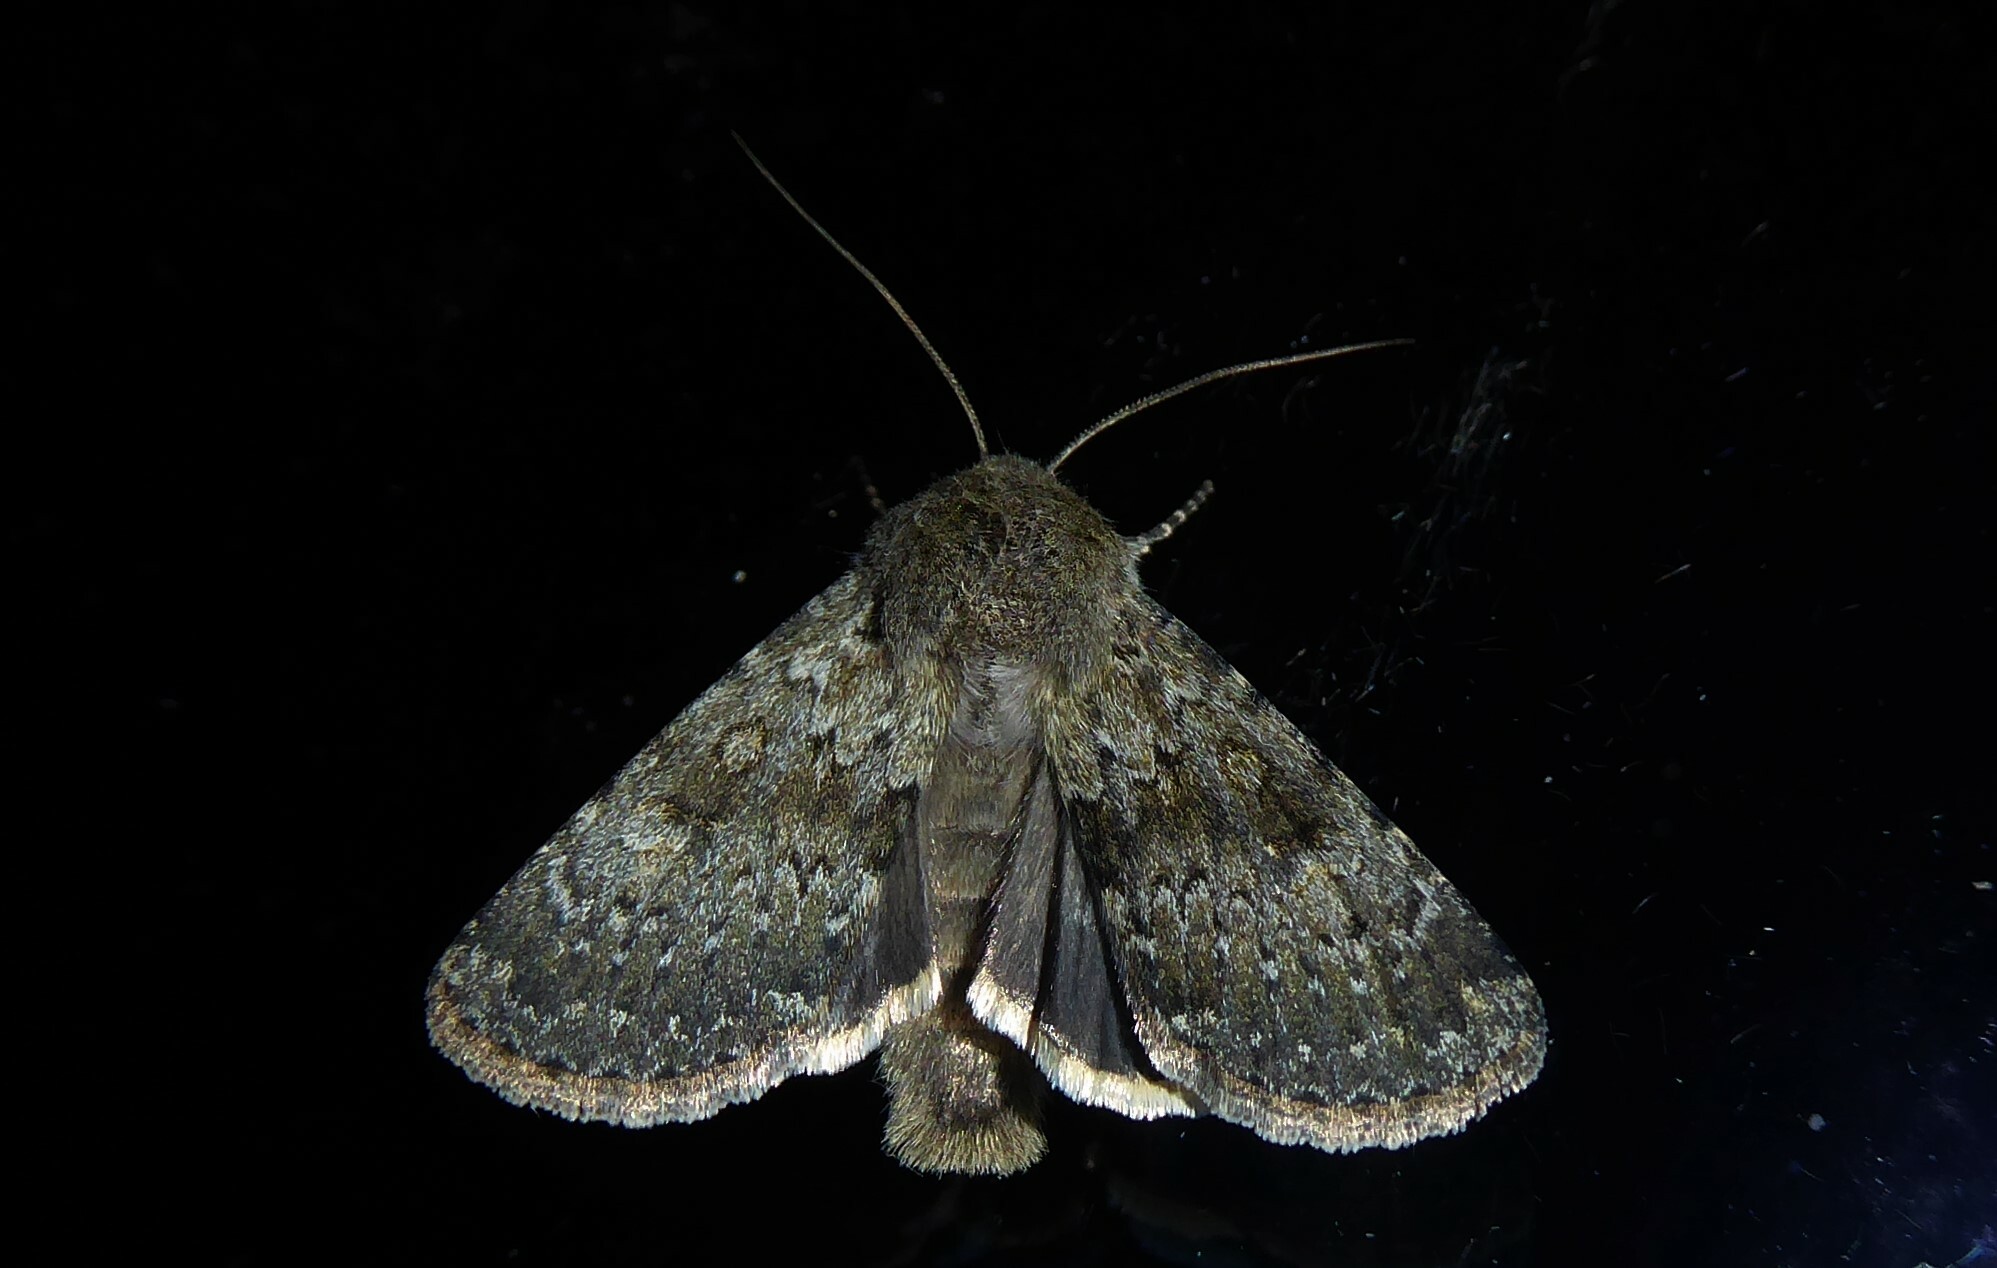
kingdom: Animalia
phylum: Arthropoda
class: Insecta
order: Lepidoptera
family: Noctuidae
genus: Ichneutica
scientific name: Ichneutica moderata
